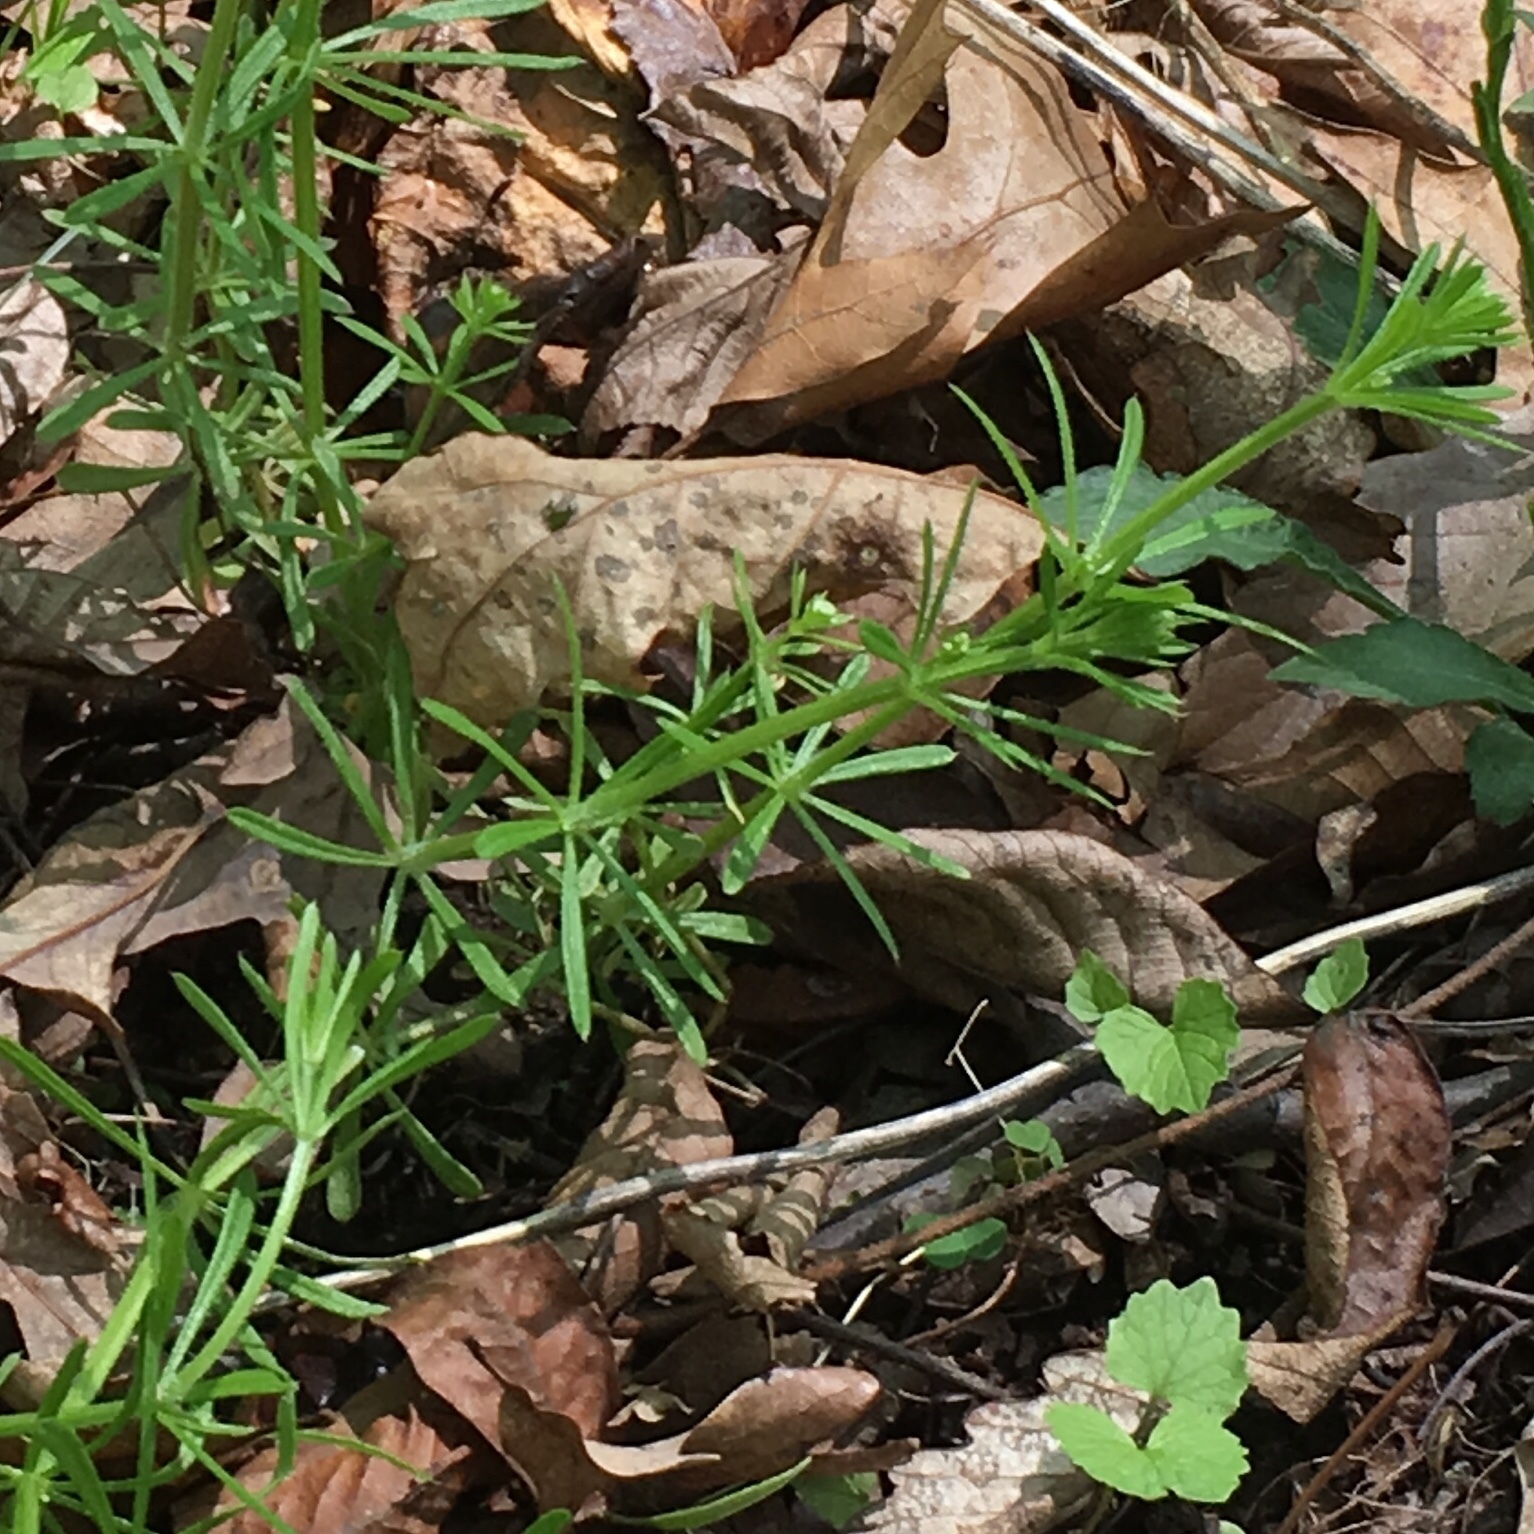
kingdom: Plantae
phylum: Tracheophyta
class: Magnoliopsida
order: Gentianales
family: Rubiaceae
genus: Galium
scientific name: Galium aparine
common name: Cleavers
